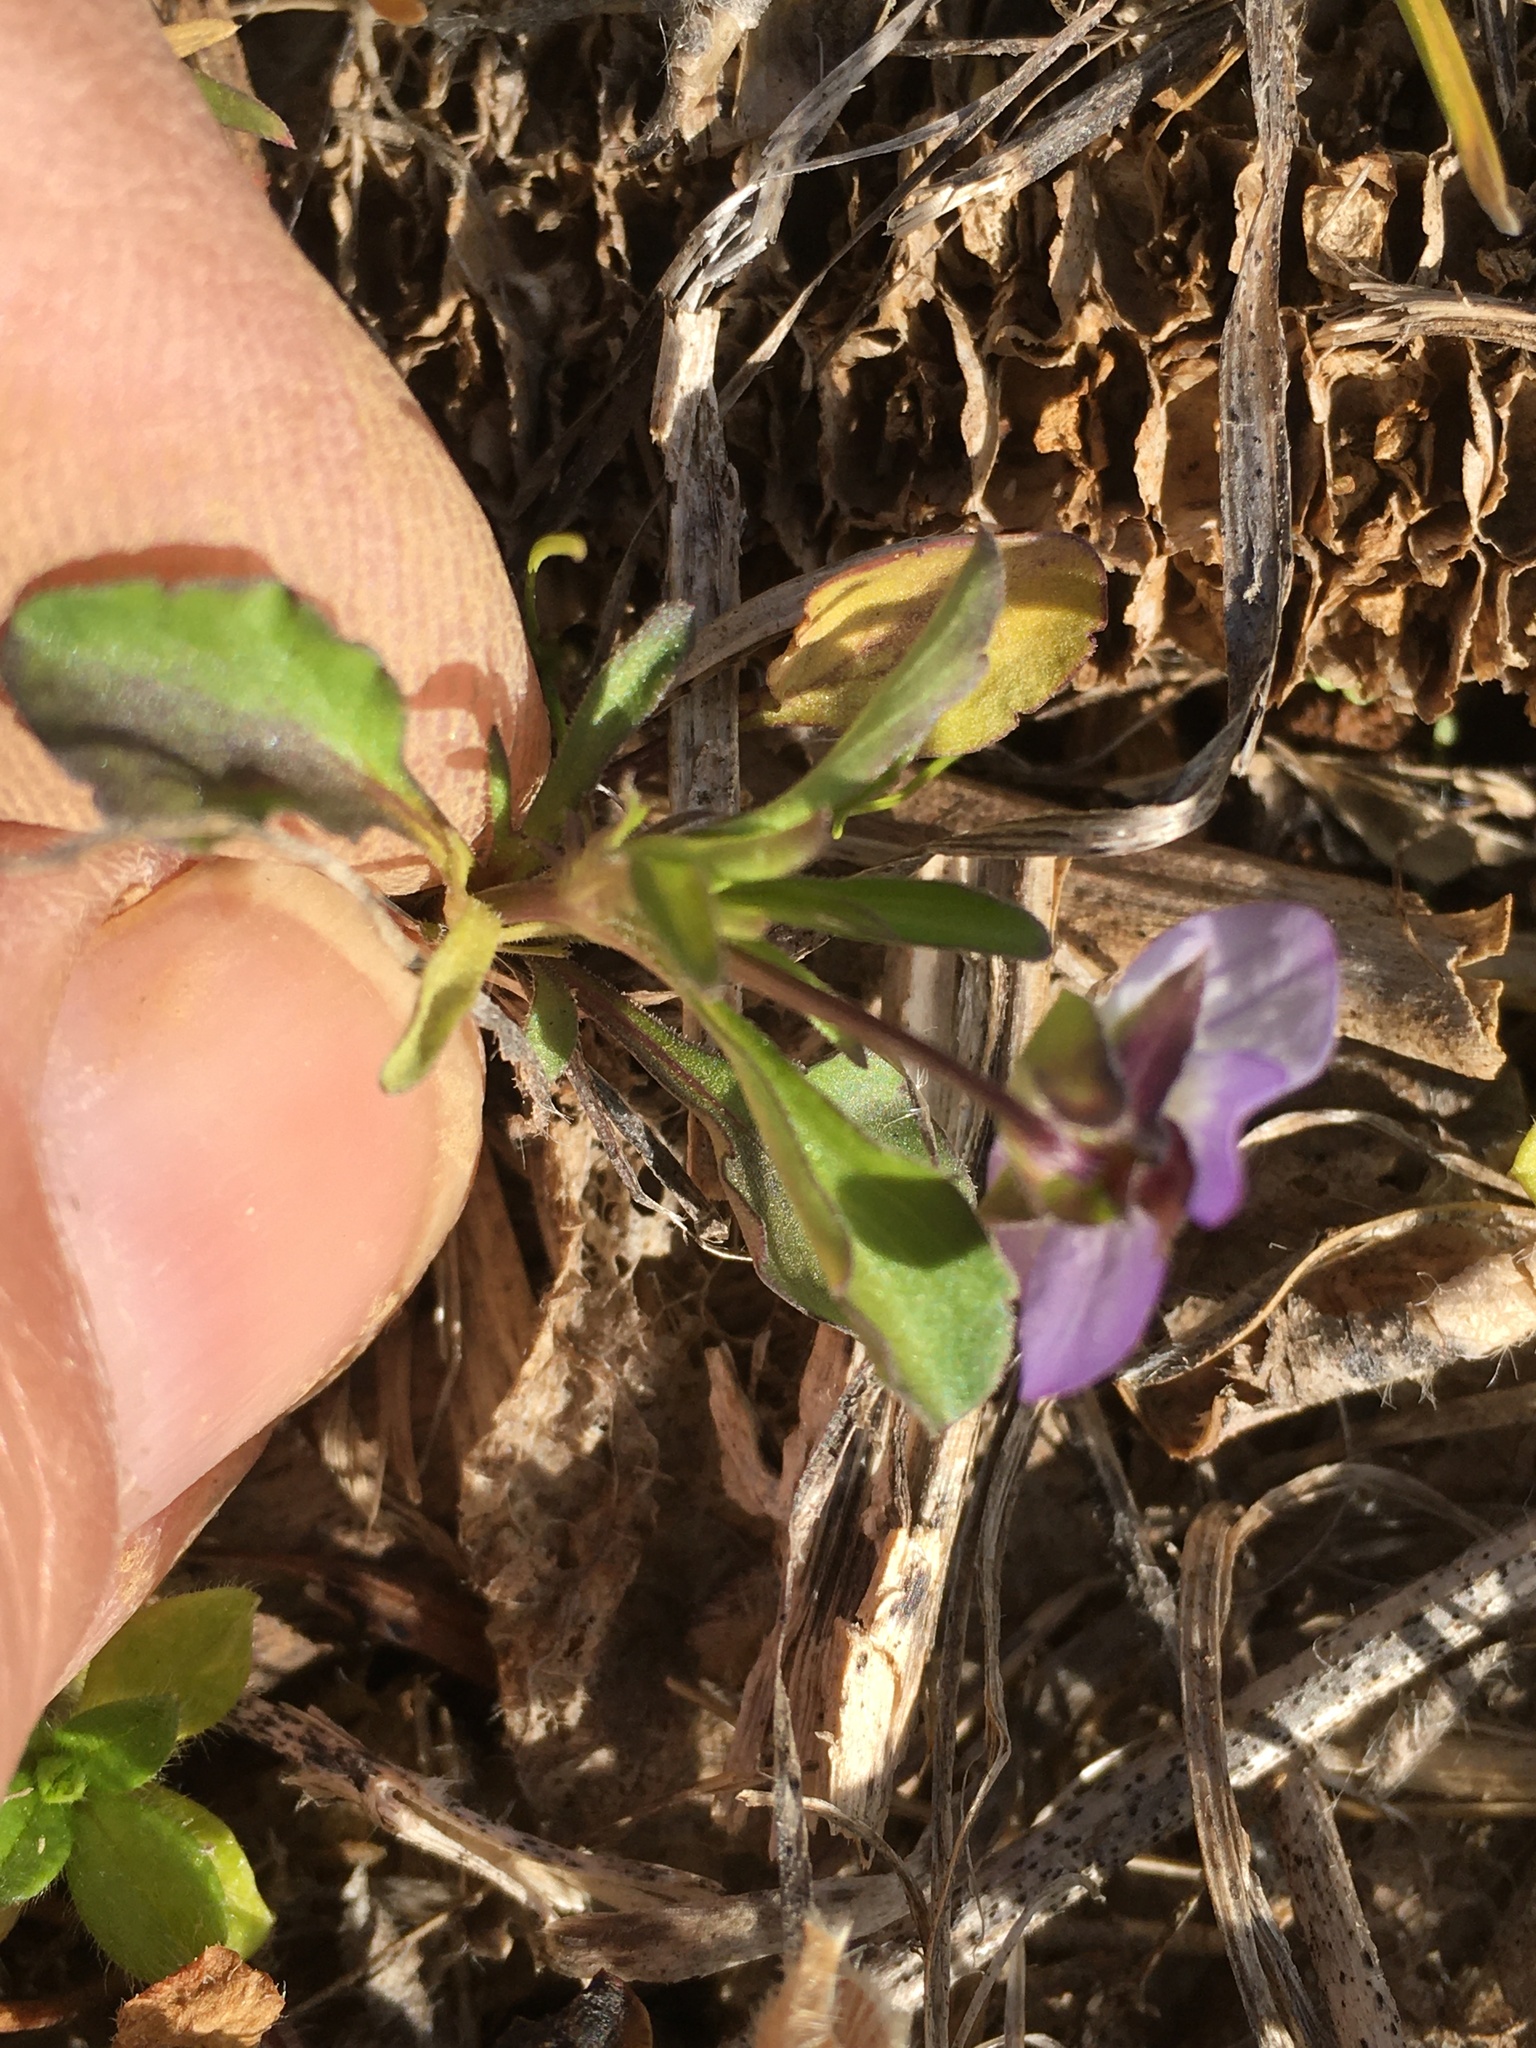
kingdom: Plantae
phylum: Tracheophyta
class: Magnoliopsida
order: Malpighiales
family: Violaceae
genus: Viola
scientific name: Viola rafinesquei
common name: American field pansy
